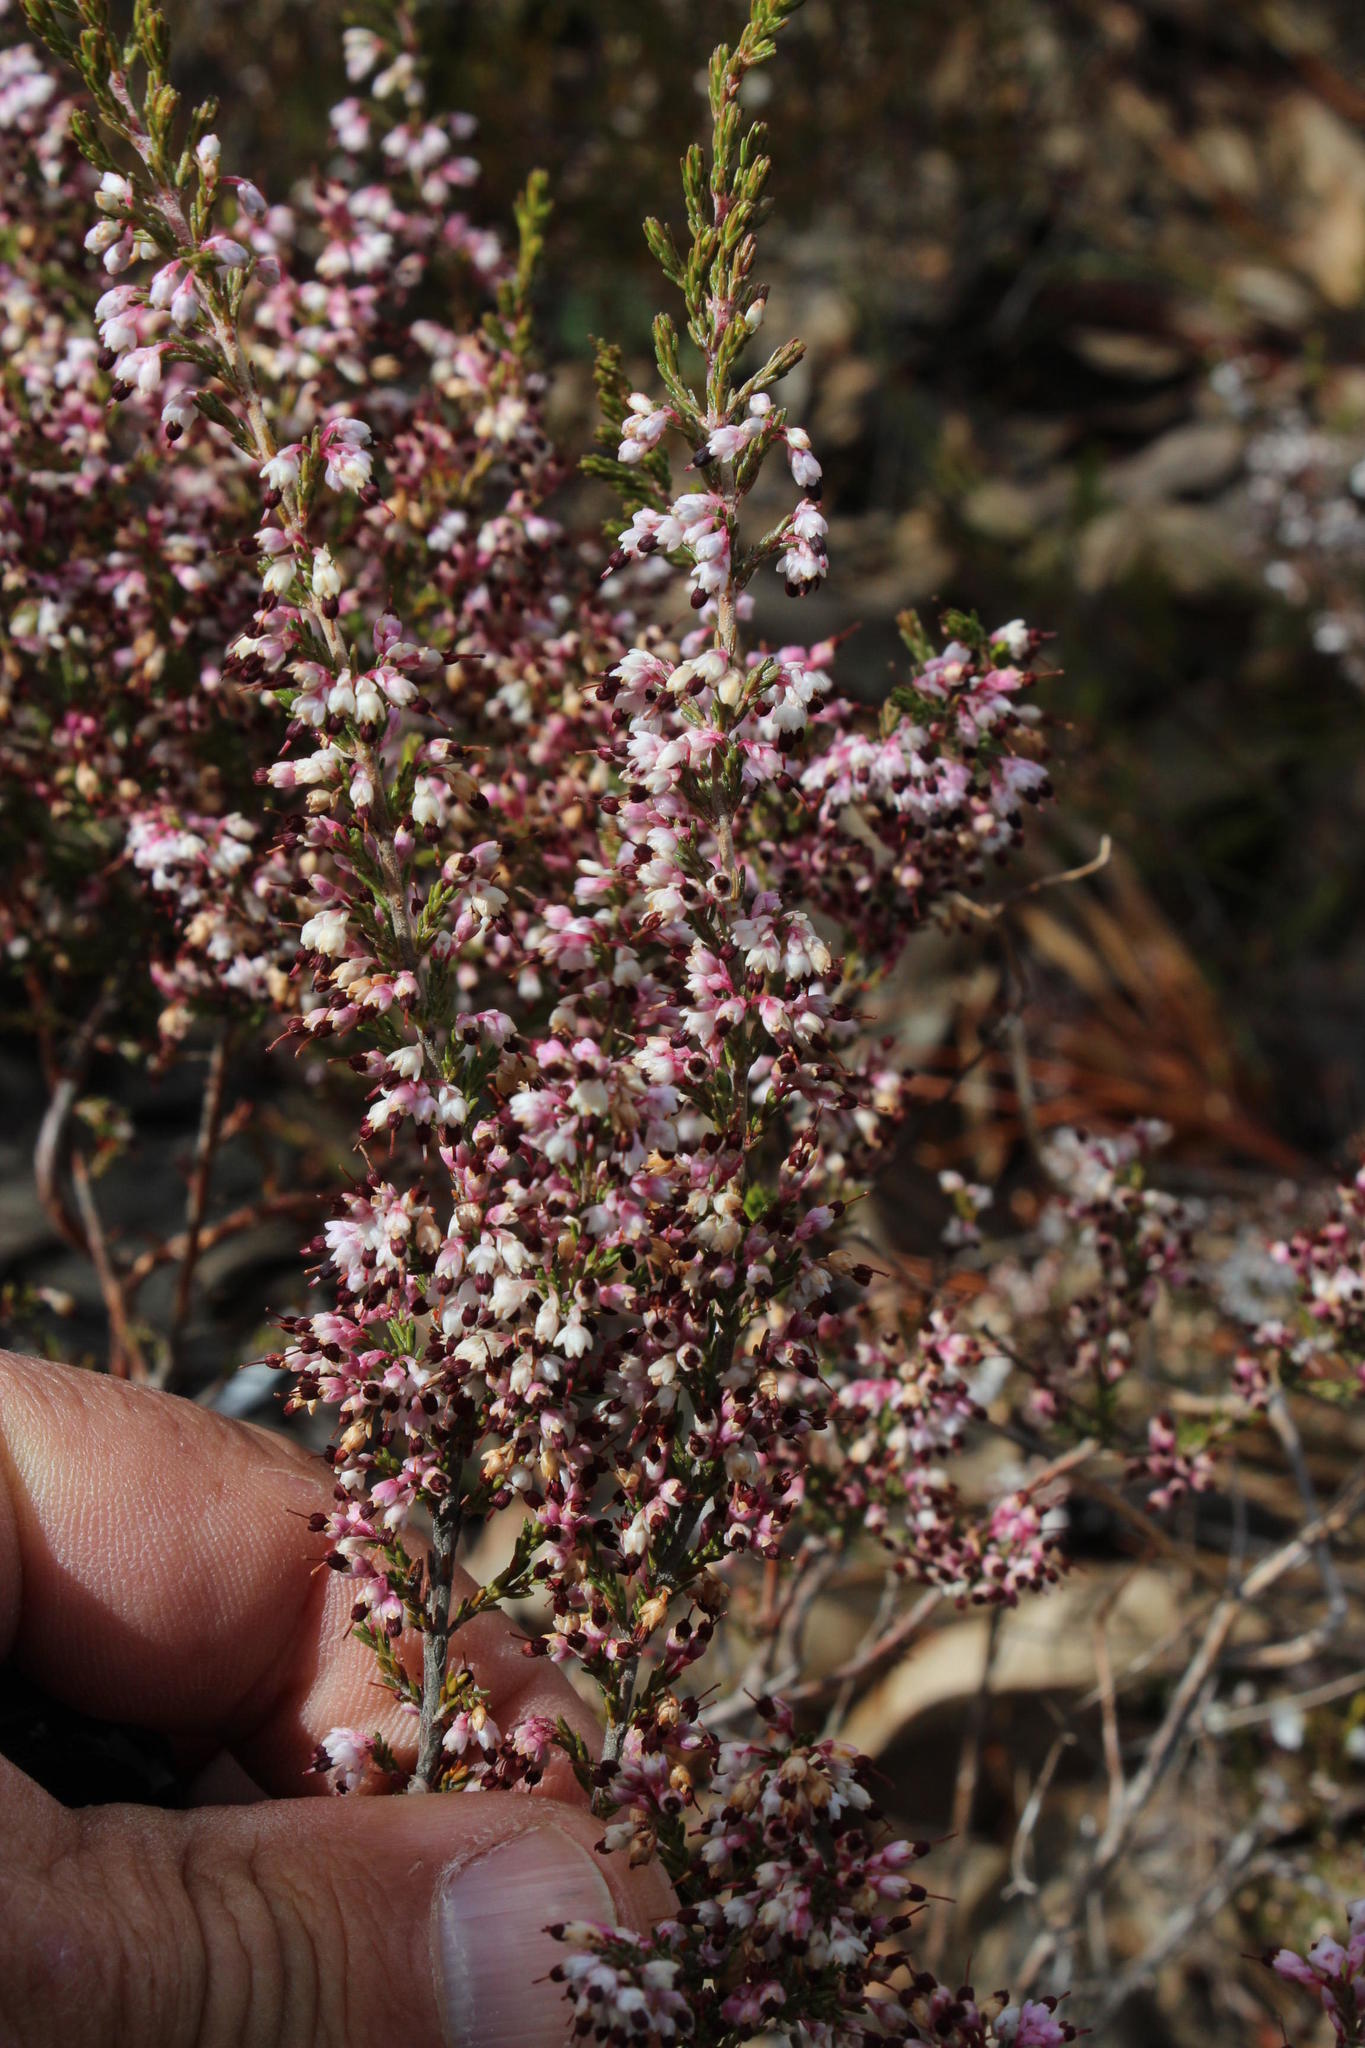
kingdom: Plantae
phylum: Tracheophyta
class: Magnoliopsida
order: Ericales
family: Ericaceae
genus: Erica
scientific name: Erica imbricata
